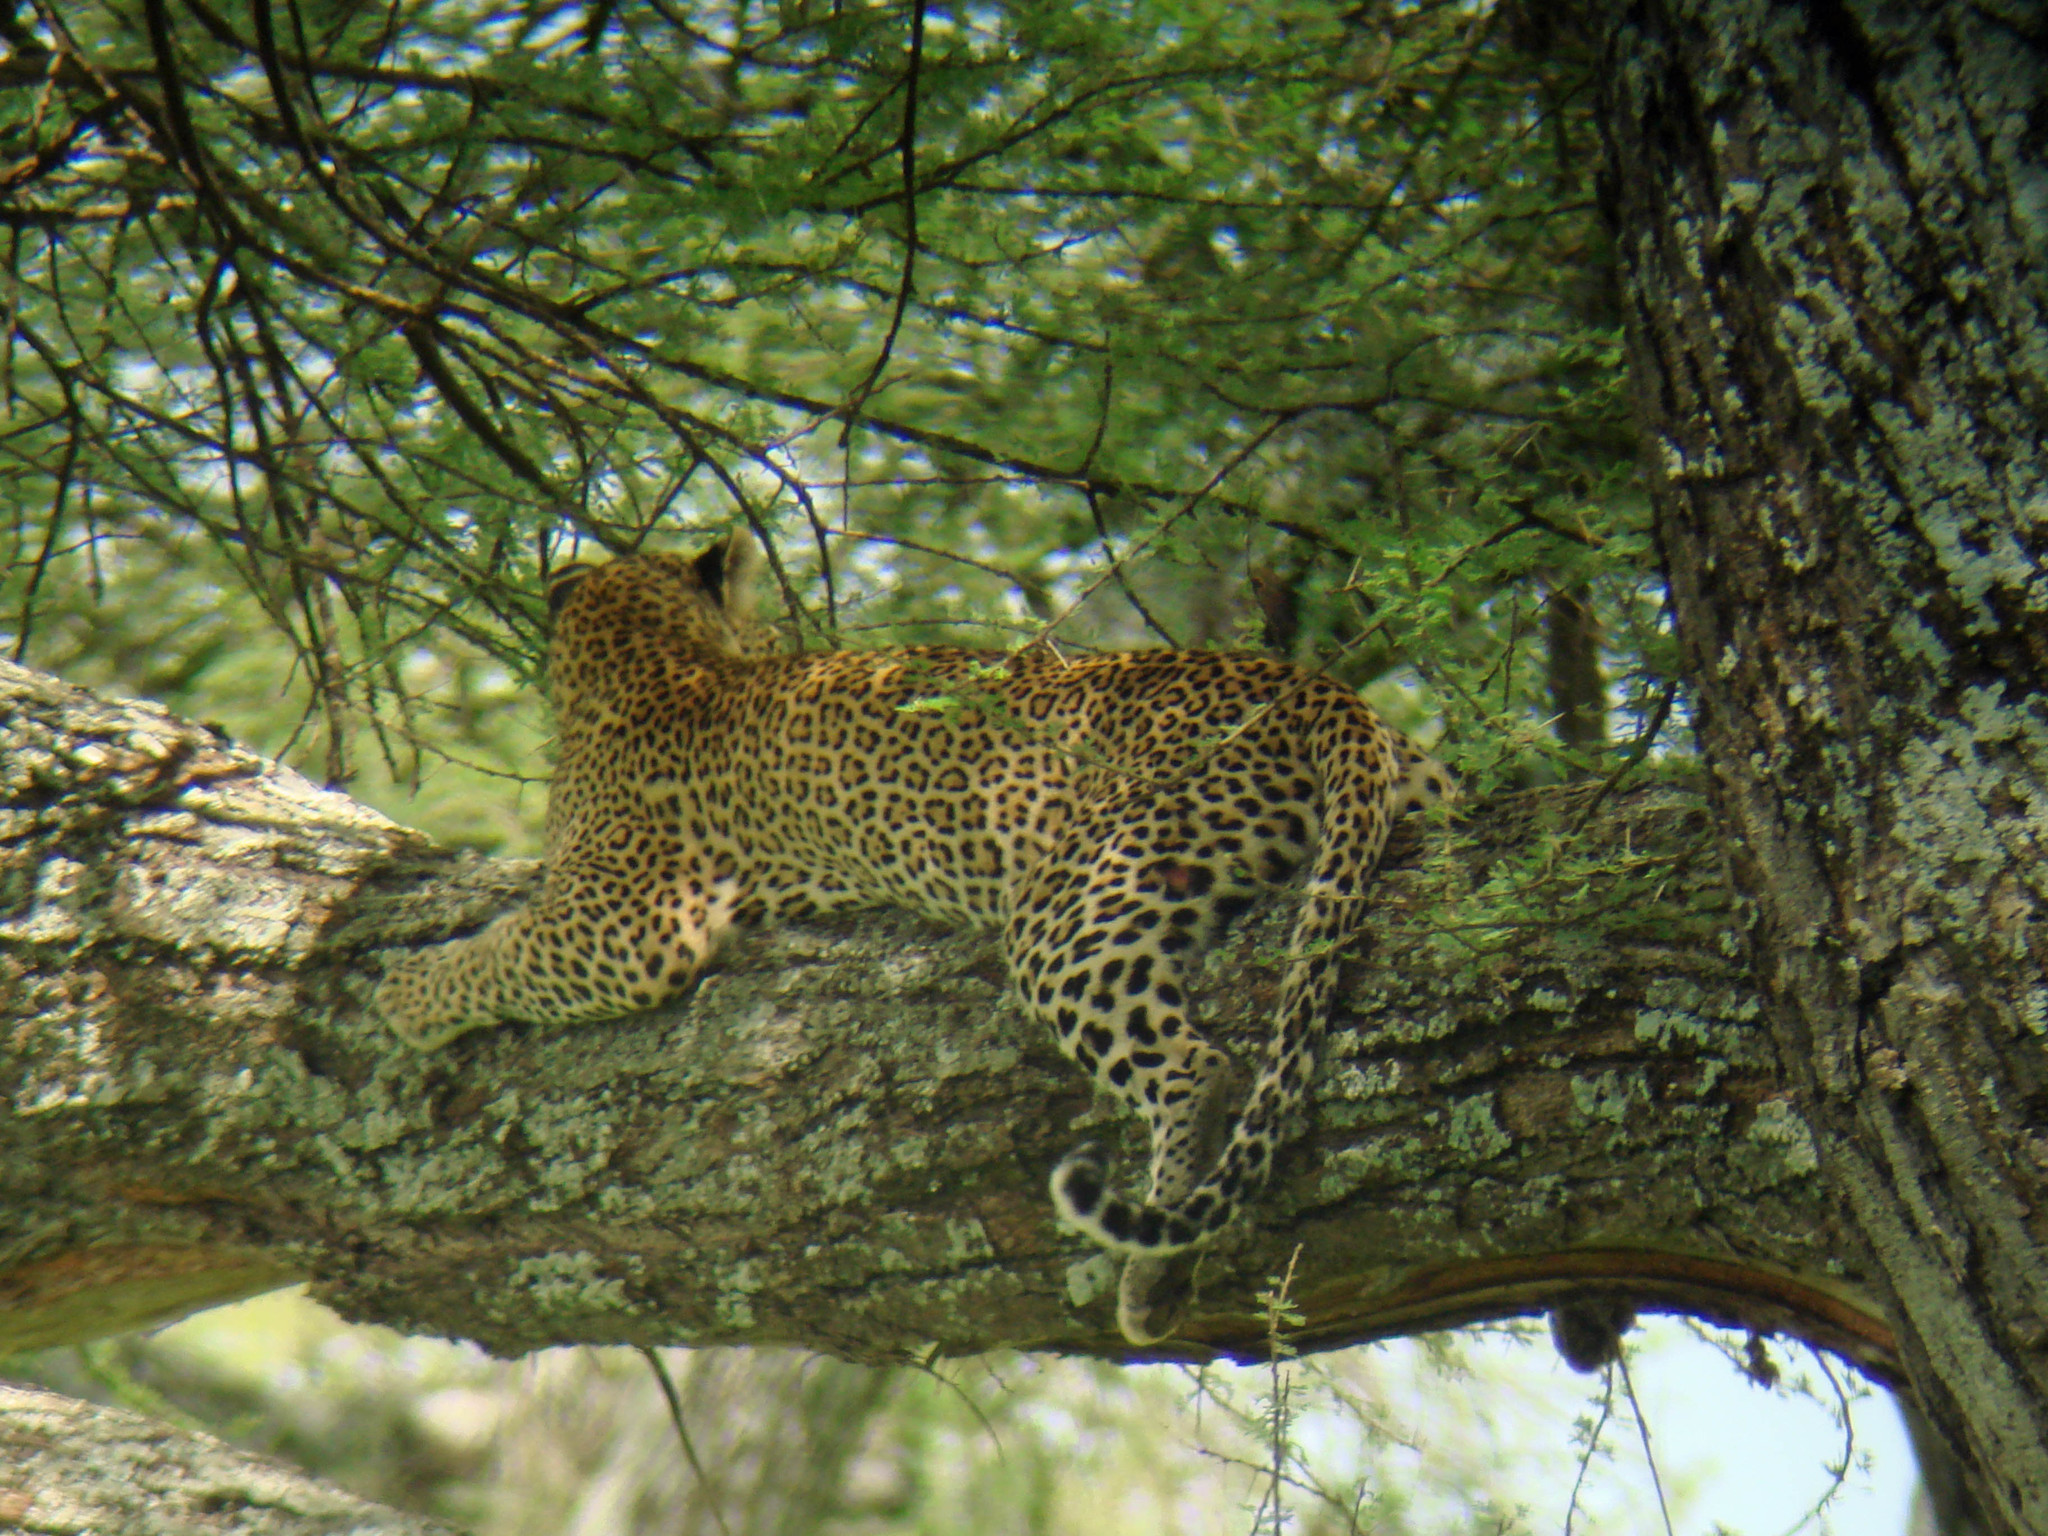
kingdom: Animalia
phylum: Chordata
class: Mammalia
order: Carnivora
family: Felidae
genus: Panthera
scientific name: Panthera pardus
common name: Leopard
